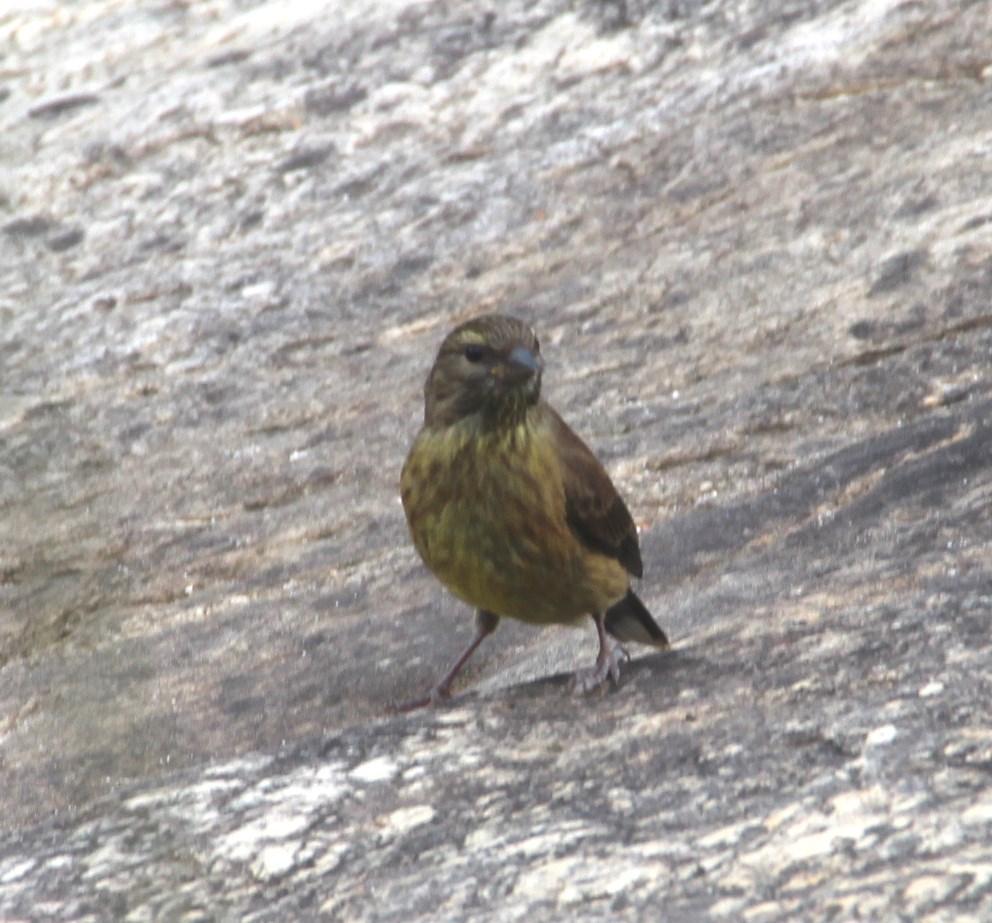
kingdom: Animalia
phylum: Chordata
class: Aves
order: Passeriformes
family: Fringillidae
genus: Crithagra
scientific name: Crithagra totta
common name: Cape siskin
